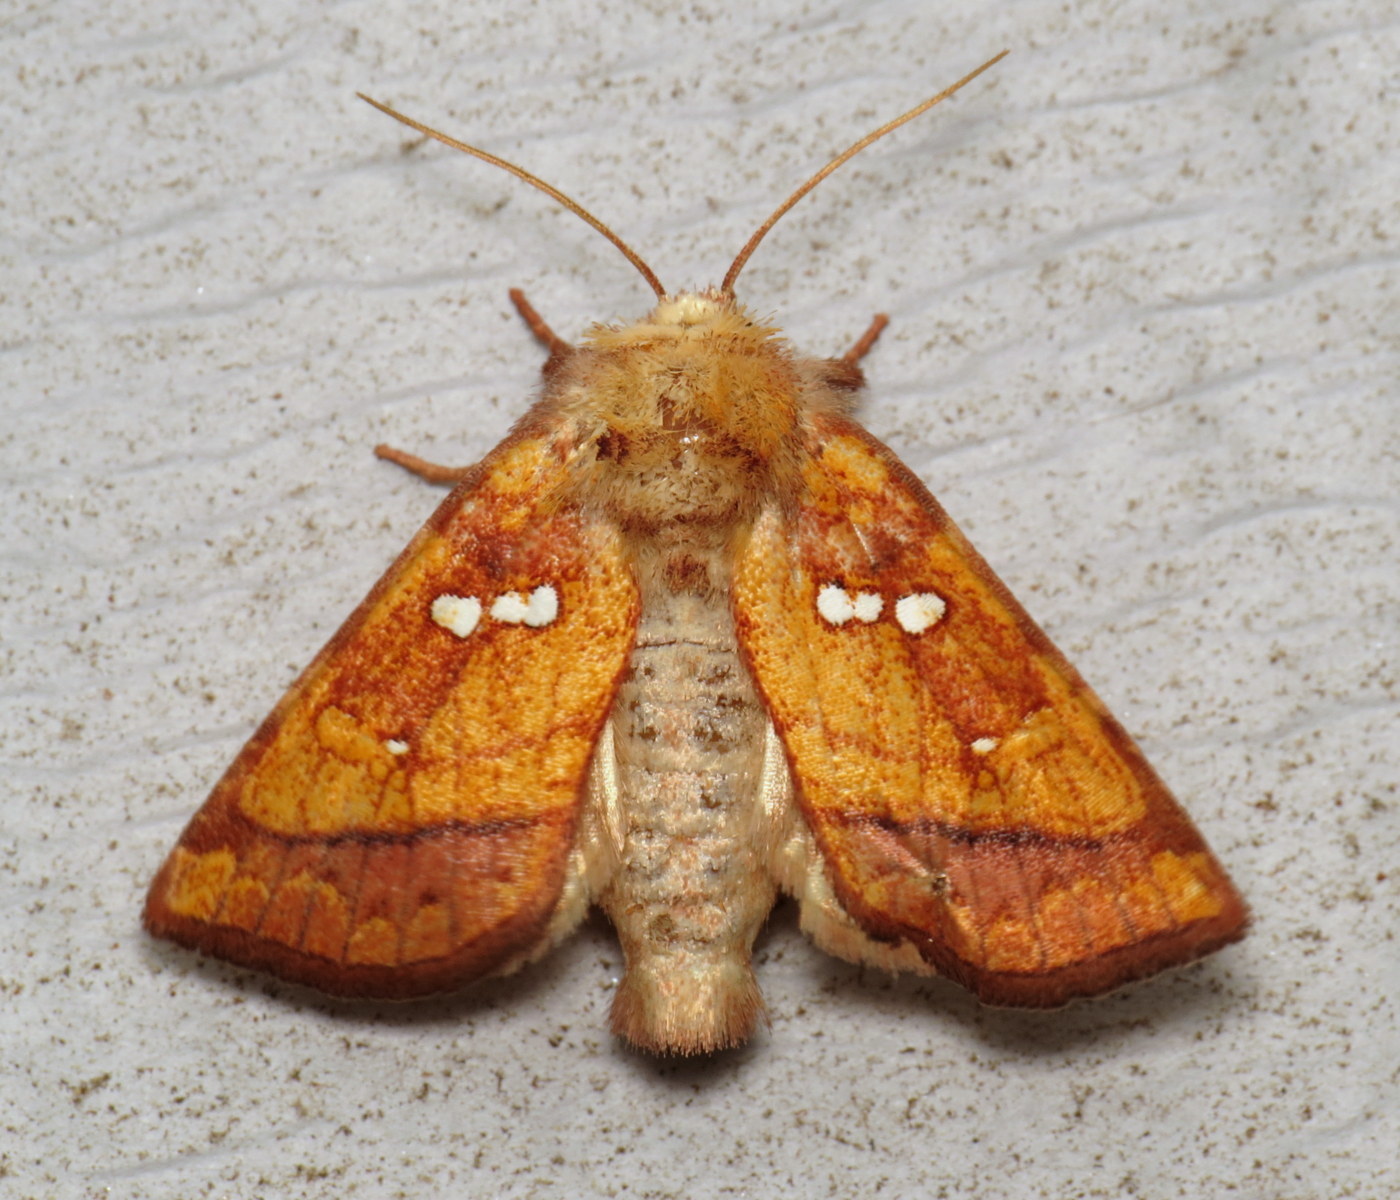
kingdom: Animalia
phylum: Arthropoda
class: Insecta
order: Lepidoptera
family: Noctuidae
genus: Papaipema
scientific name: Papaipema lysimachiae
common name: Loosestrife borer moth
